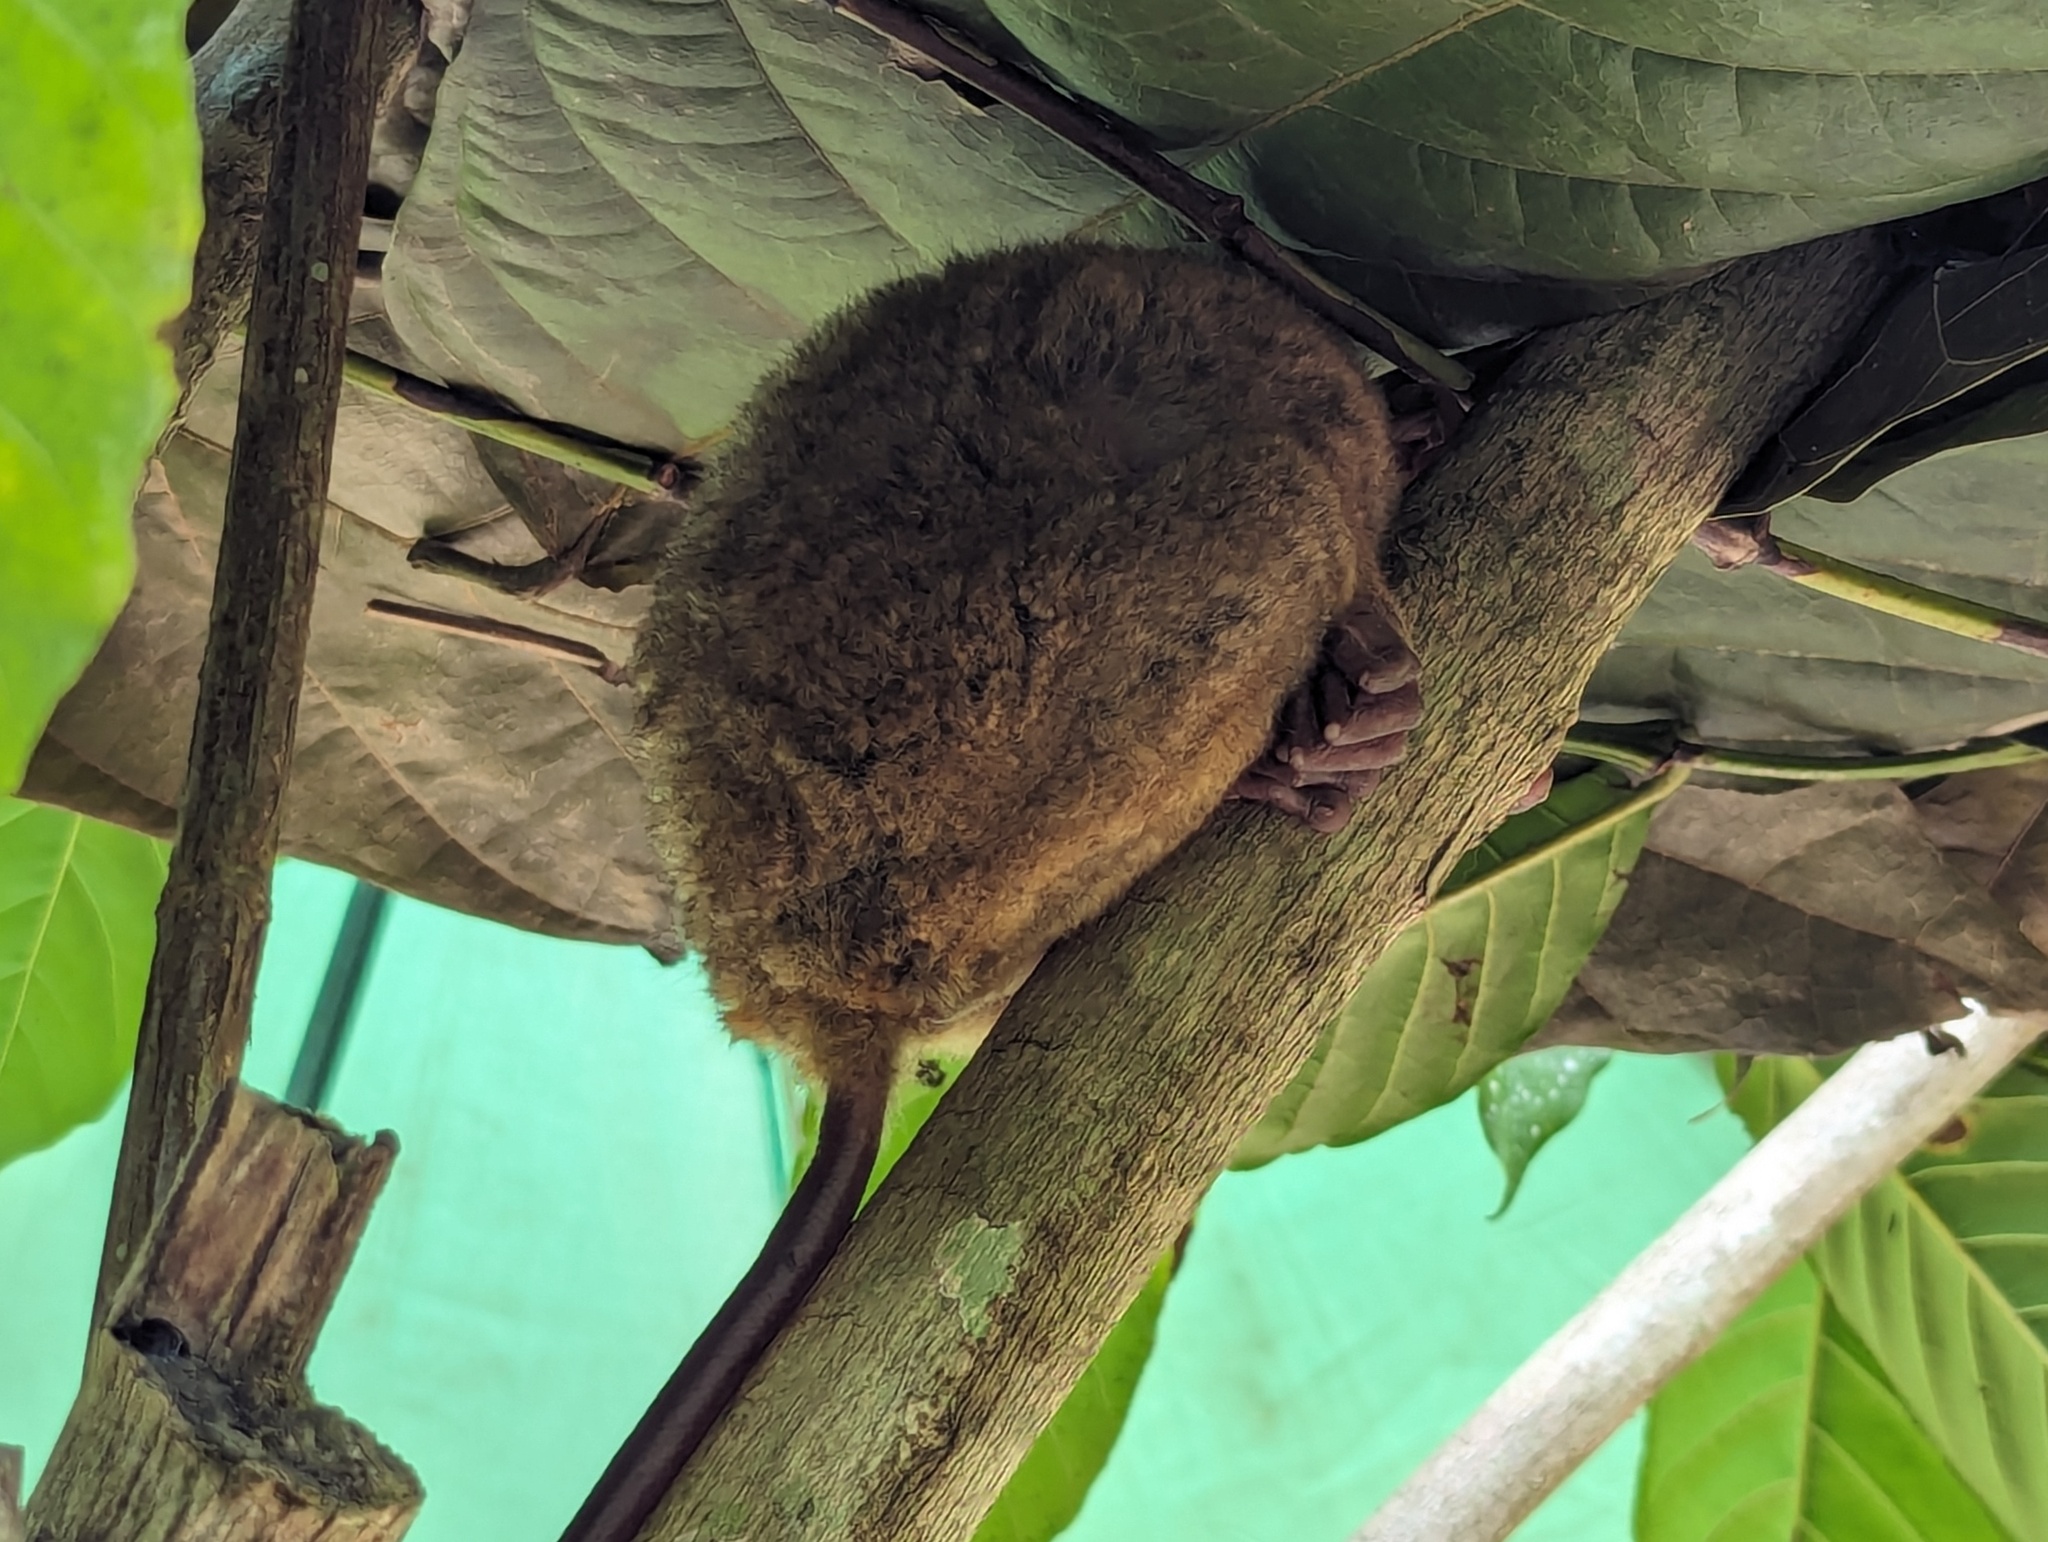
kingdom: Animalia
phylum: Chordata
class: Mammalia
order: Primates
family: Tarsiidae
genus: Carlito
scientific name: Carlito syrichta
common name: Philippine tarsier
